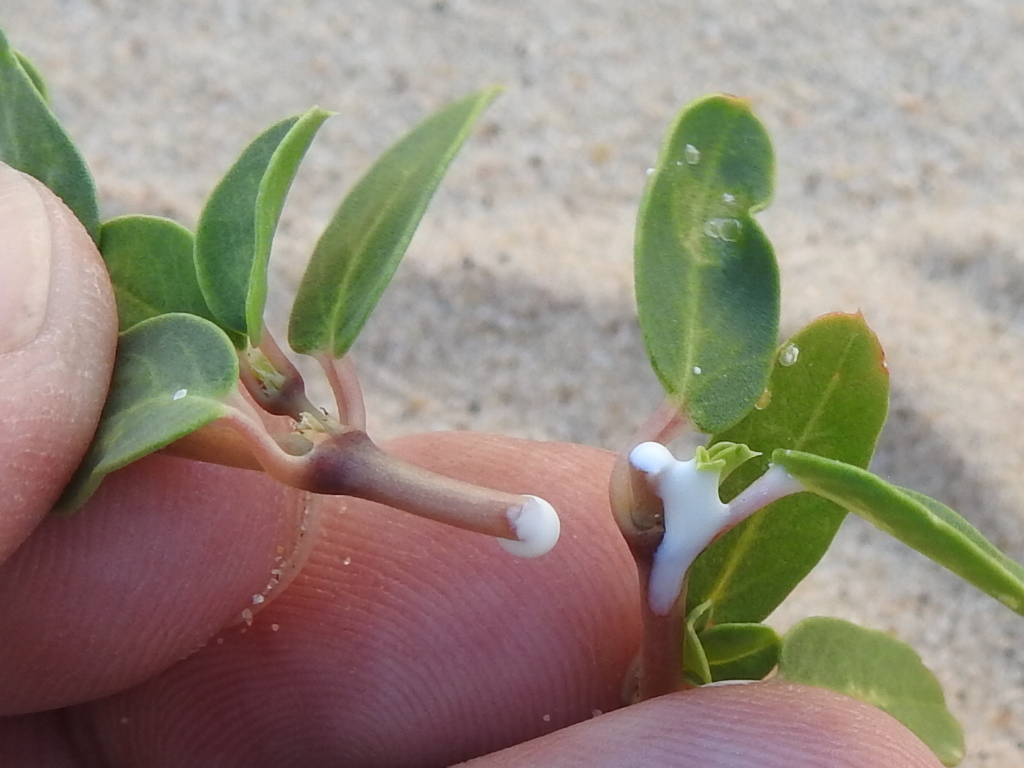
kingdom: Plantae
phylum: Tracheophyta
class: Magnoliopsida
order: Malpighiales
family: Euphorbiaceae
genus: Euphorbia
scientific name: Euphorbia carunculata
